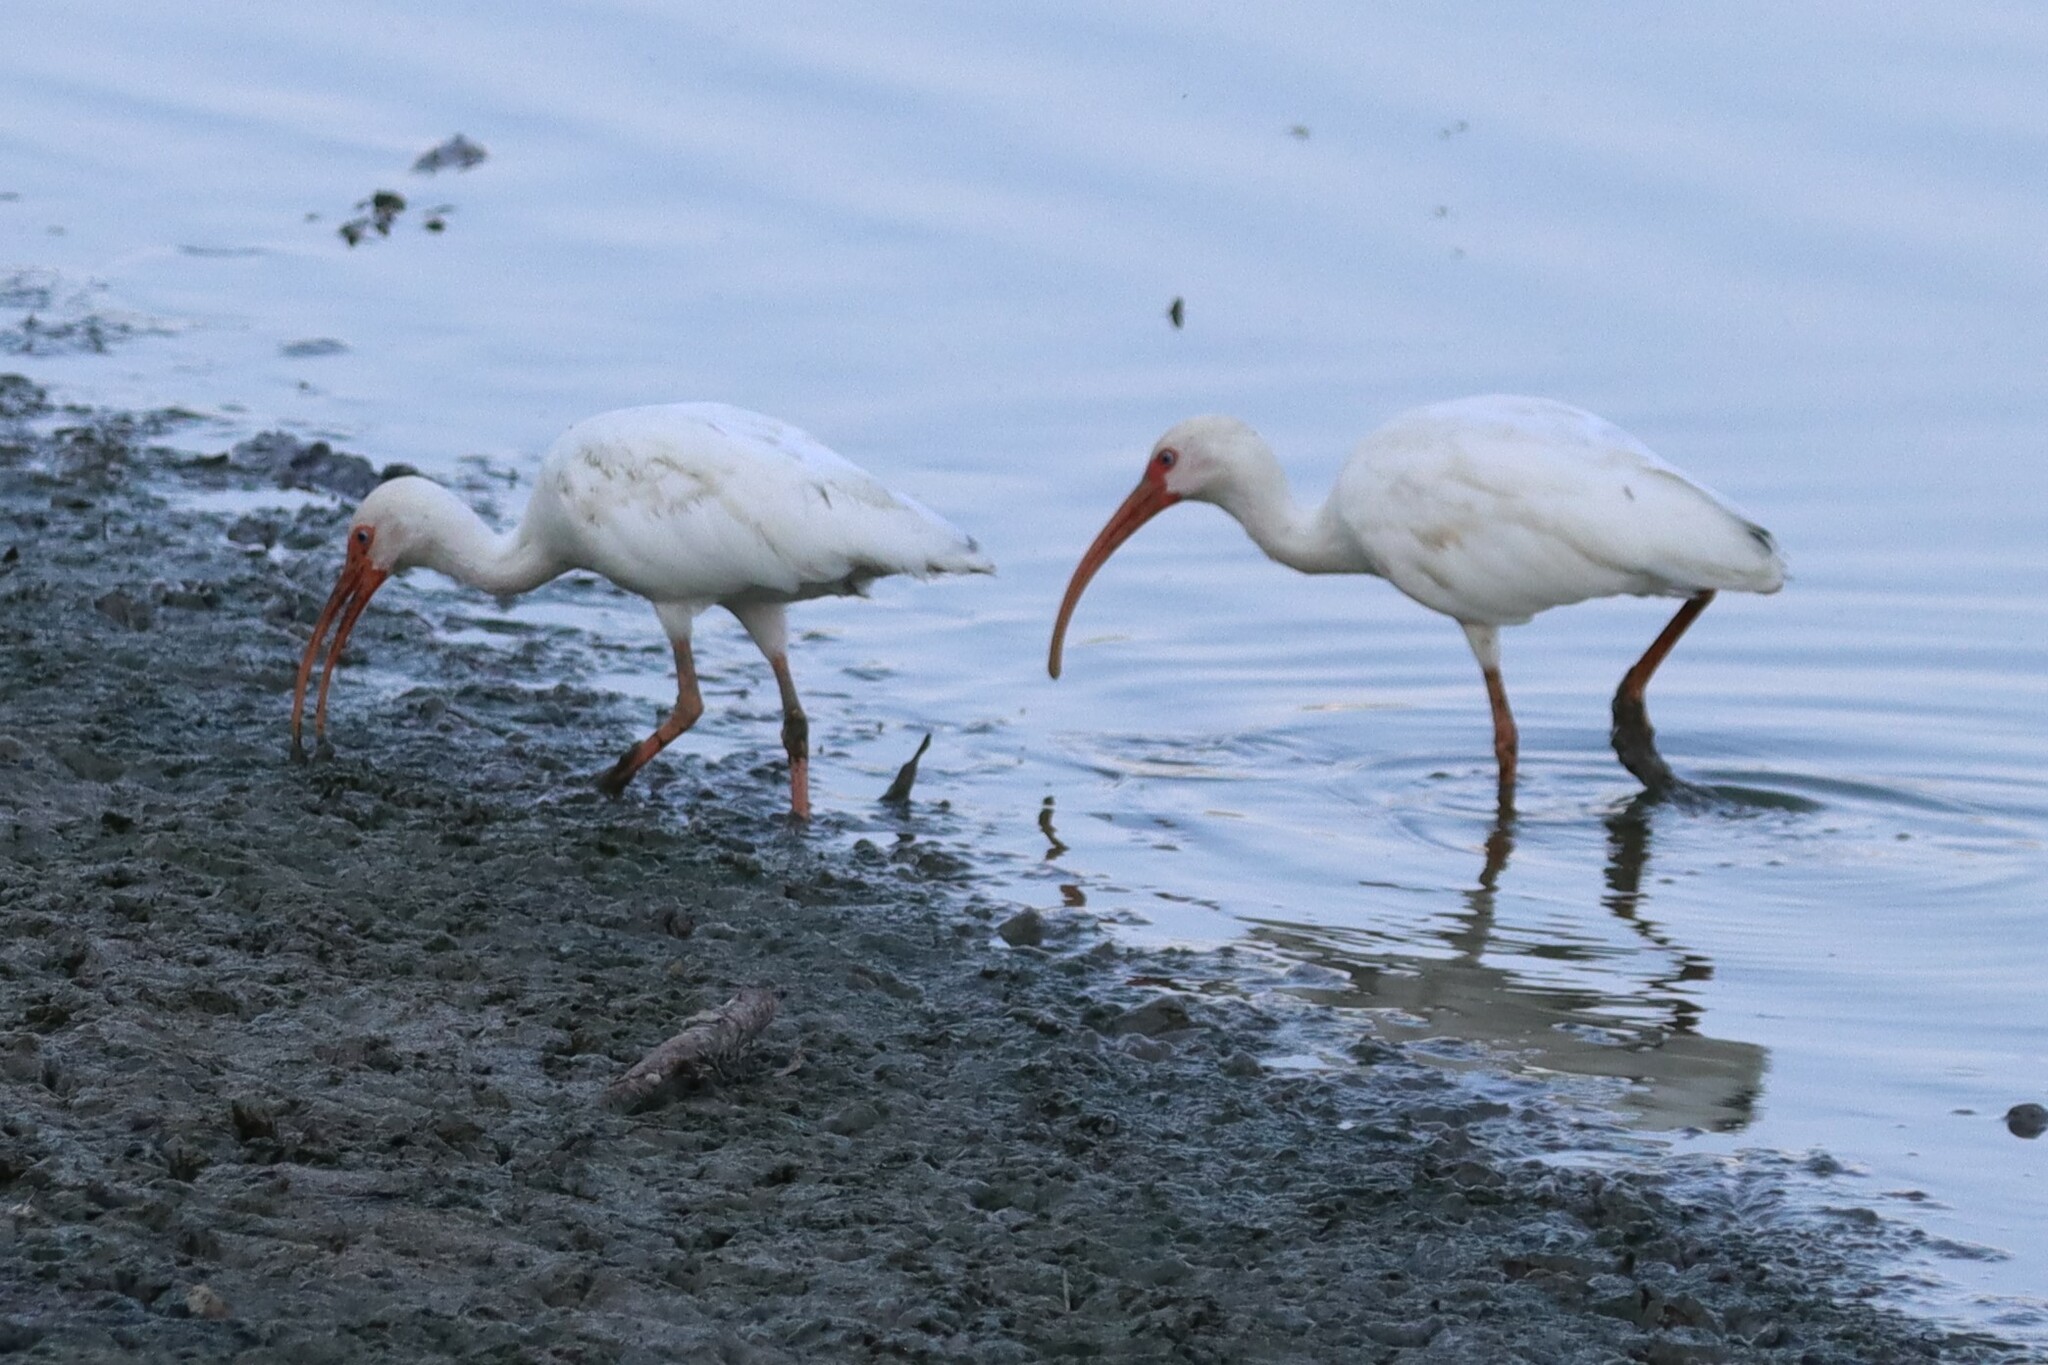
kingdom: Animalia
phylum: Chordata
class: Aves
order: Pelecaniformes
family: Threskiornithidae
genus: Eudocimus
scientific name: Eudocimus albus
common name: White ibis
